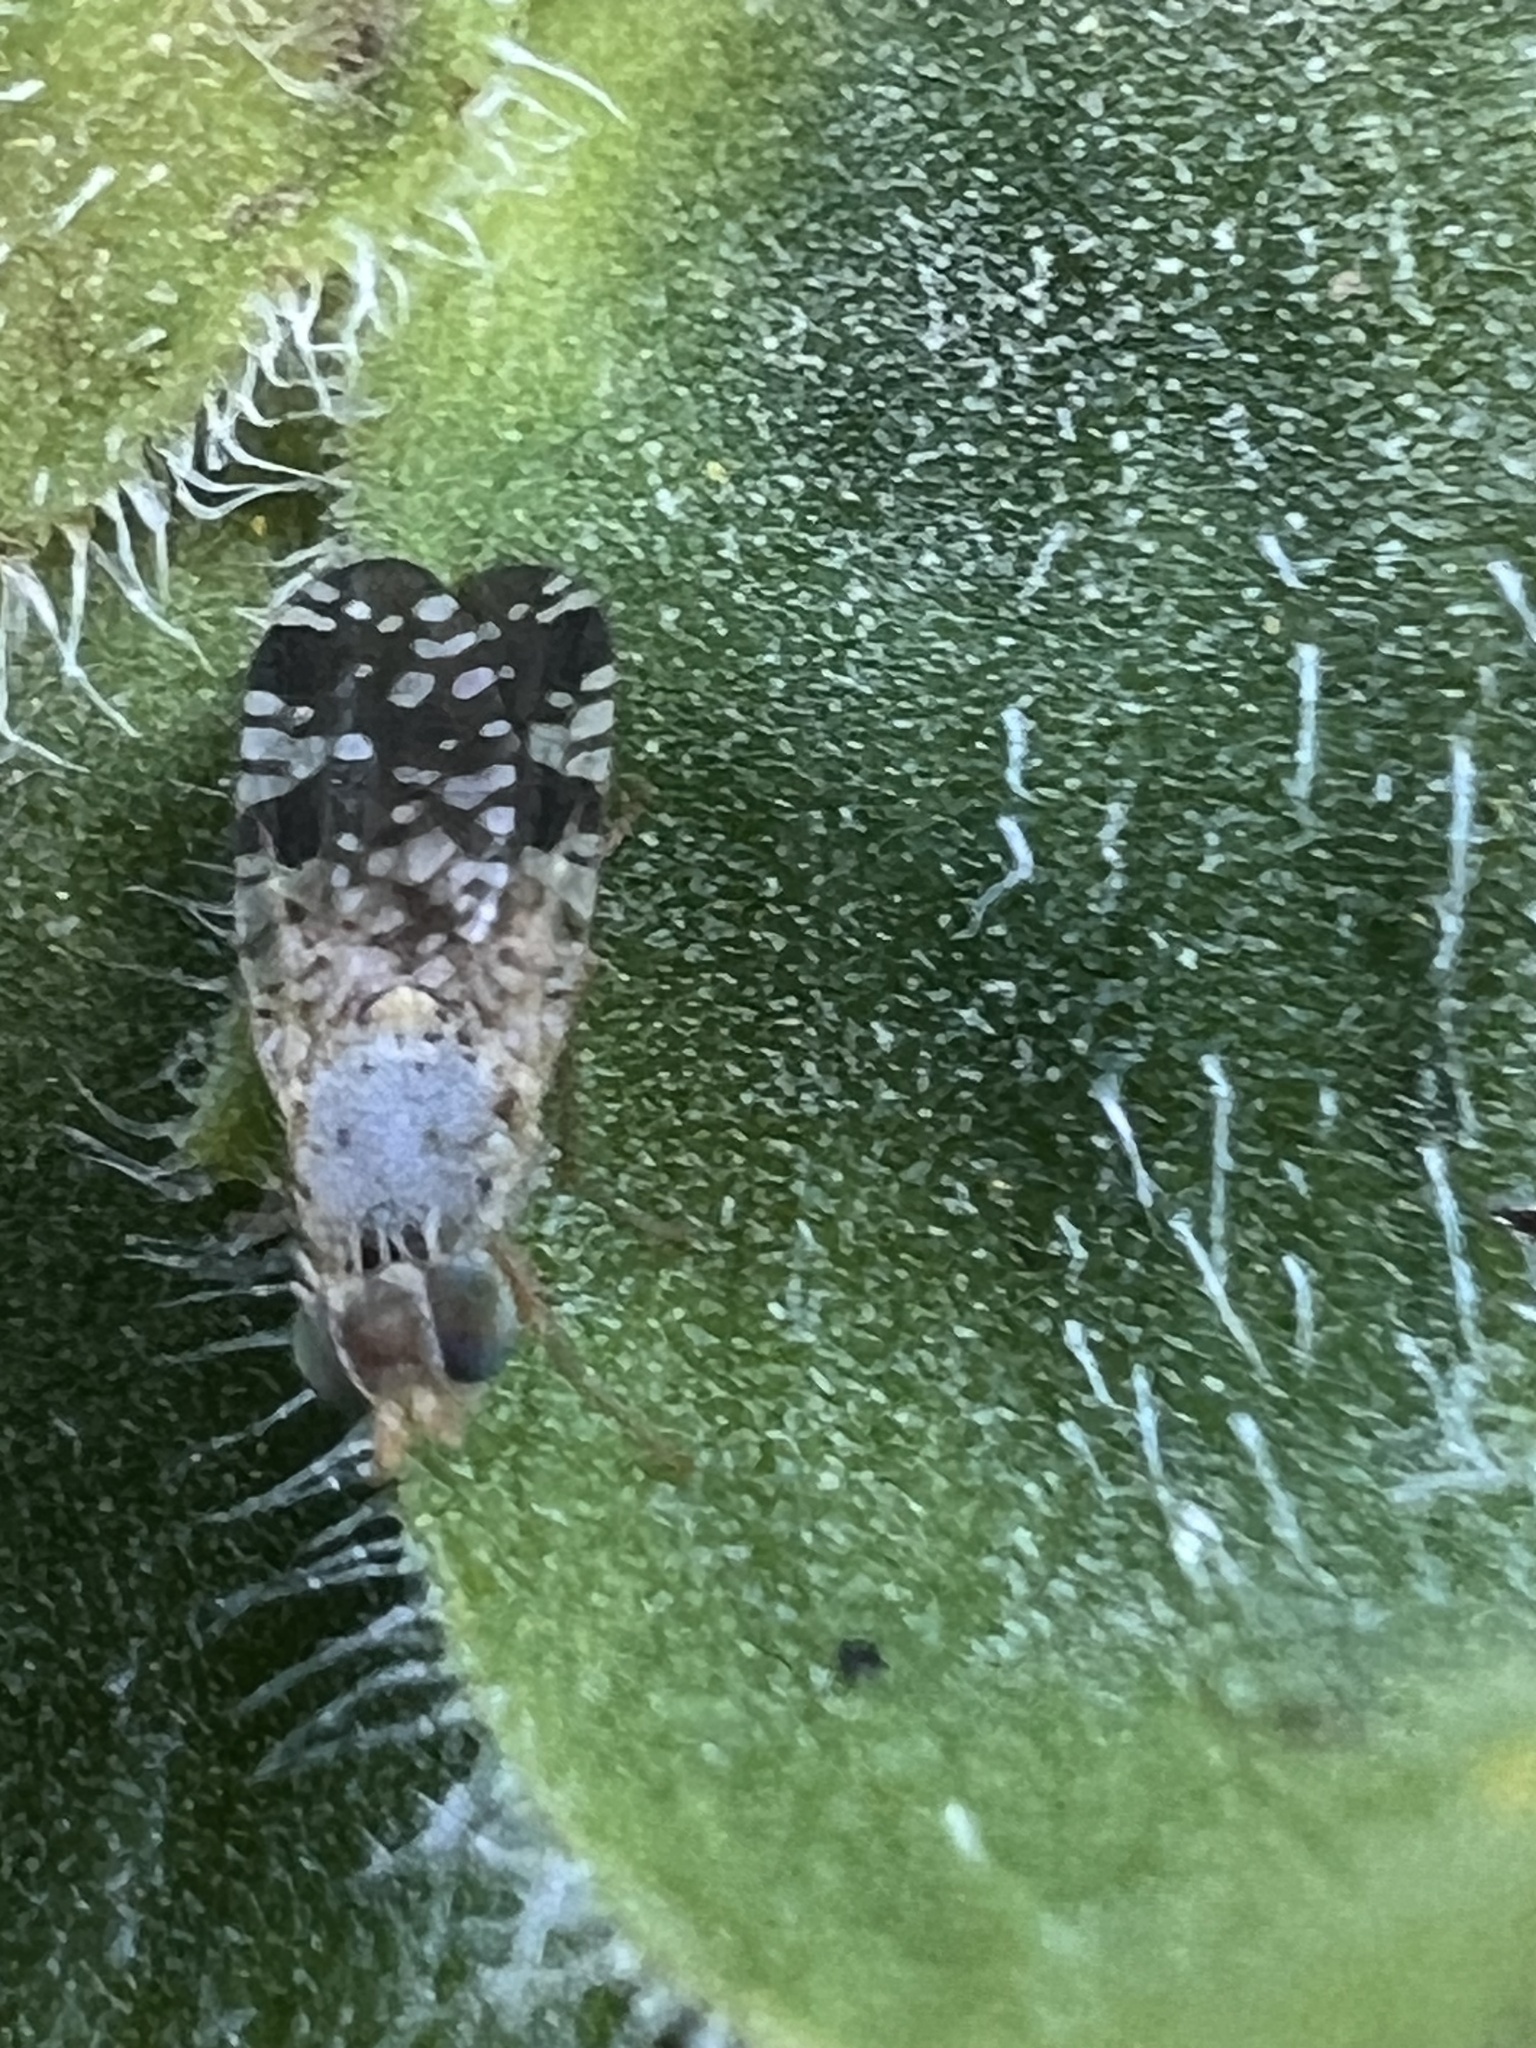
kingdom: Animalia
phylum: Arthropoda
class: Insecta
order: Diptera
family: Tephritidae
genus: Neotephritis
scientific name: Neotephritis finalis
